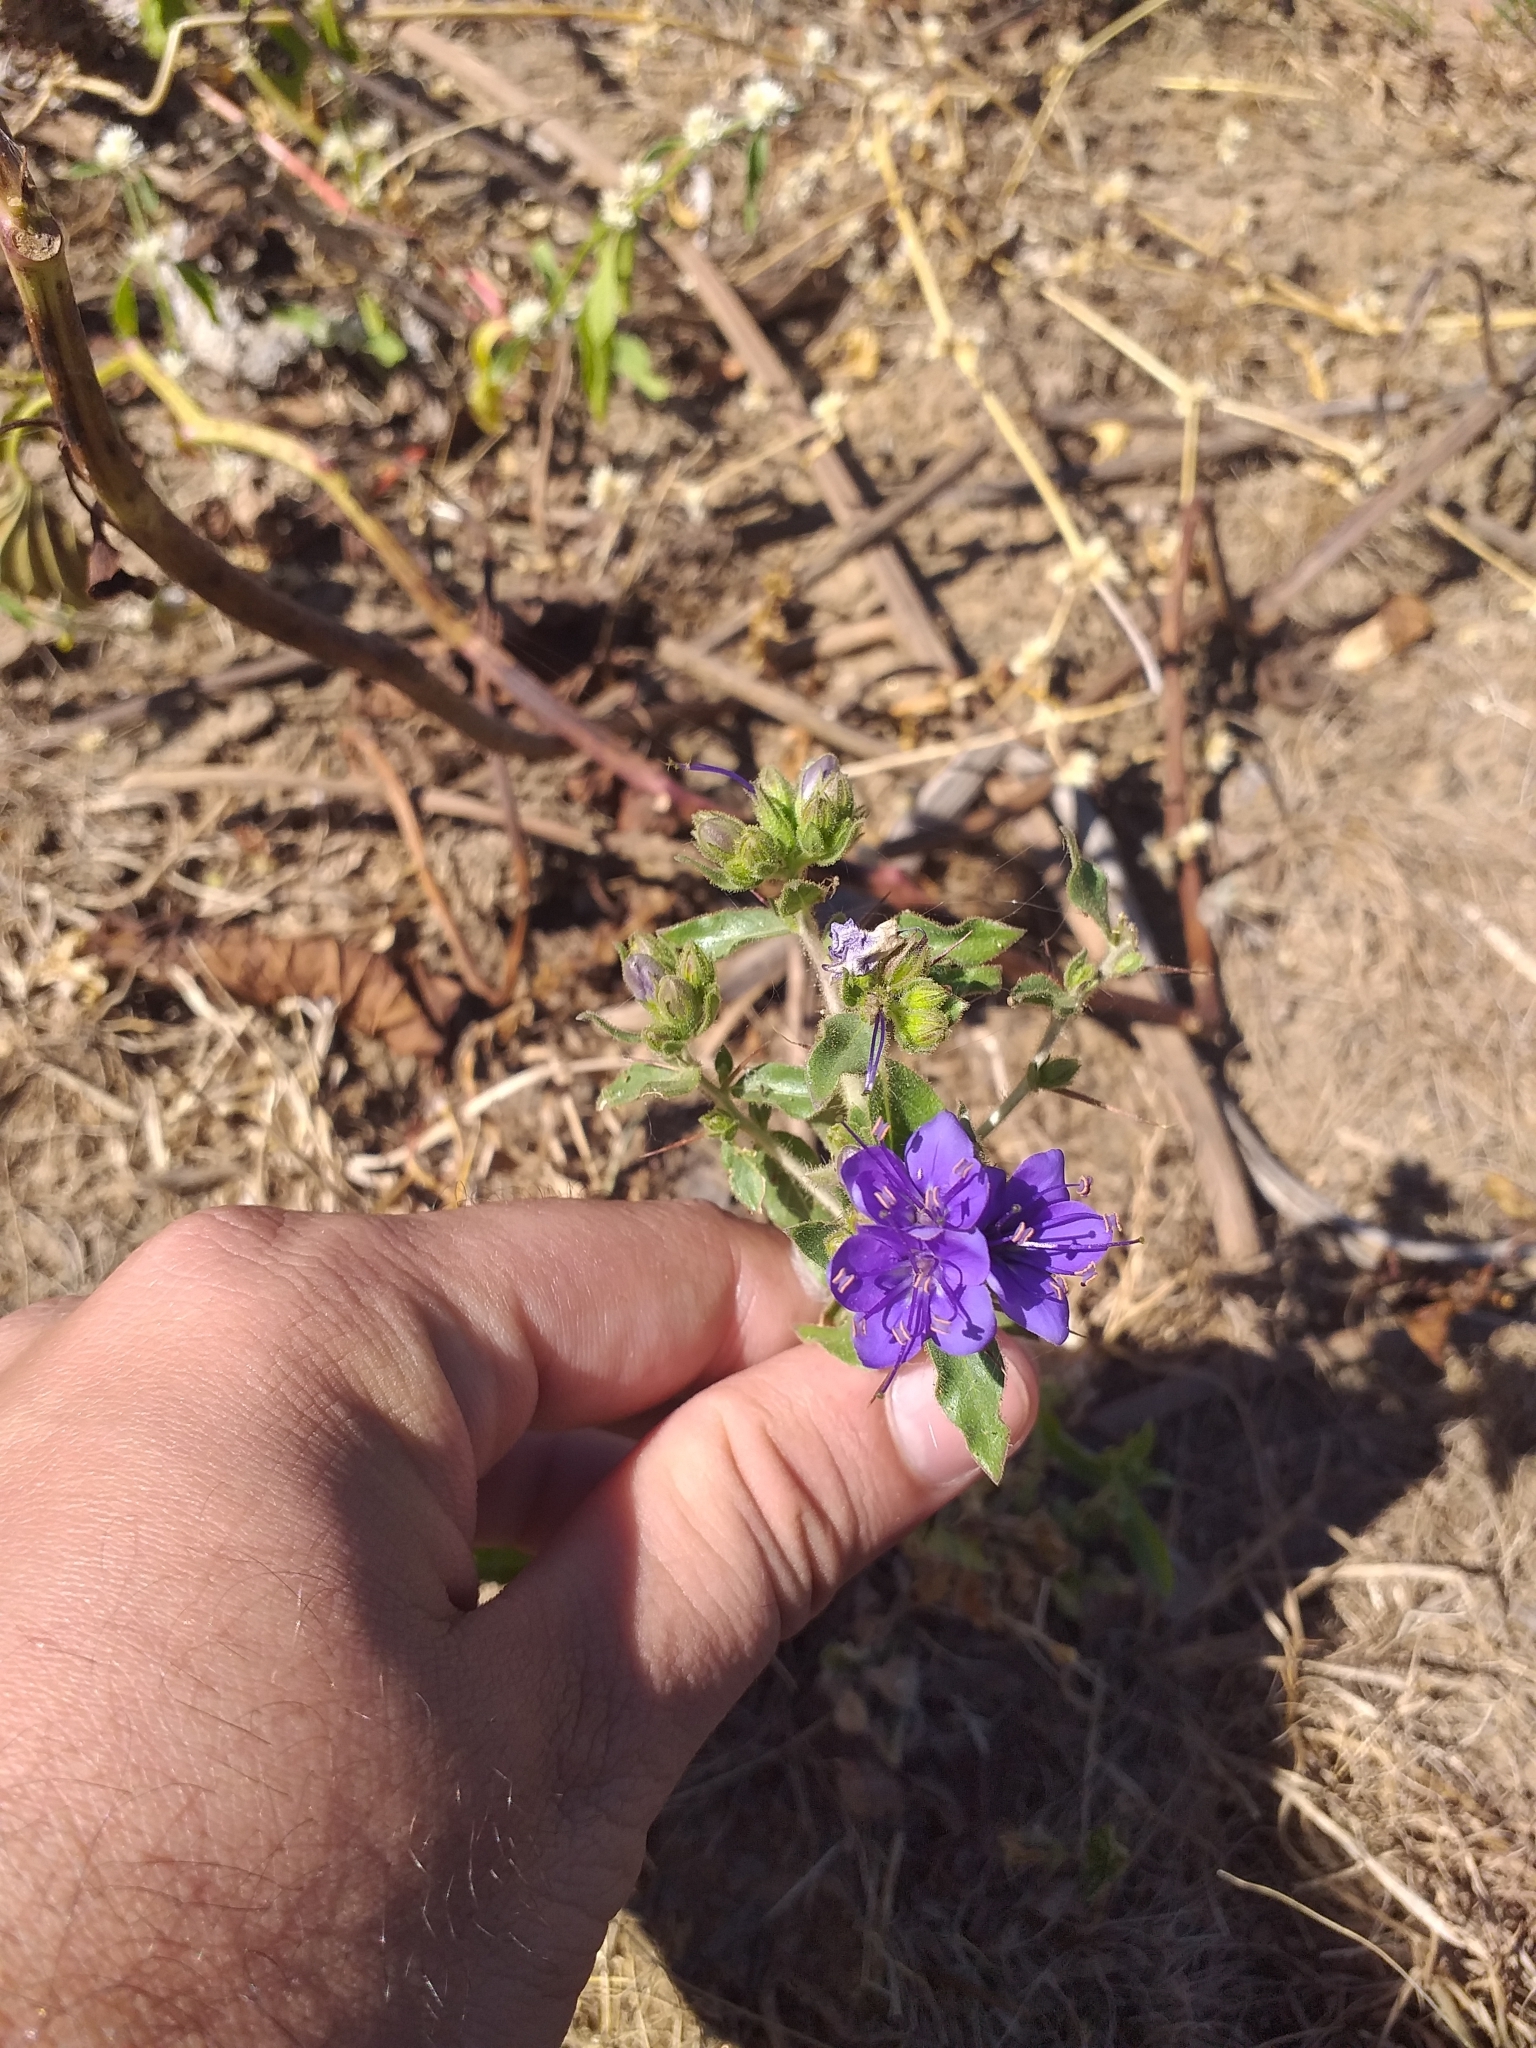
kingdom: Plantae
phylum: Tracheophyta
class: Magnoliopsida
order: Solanales
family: Hydroleaceae
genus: Hydrolea
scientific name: Hydrolea spinosa
